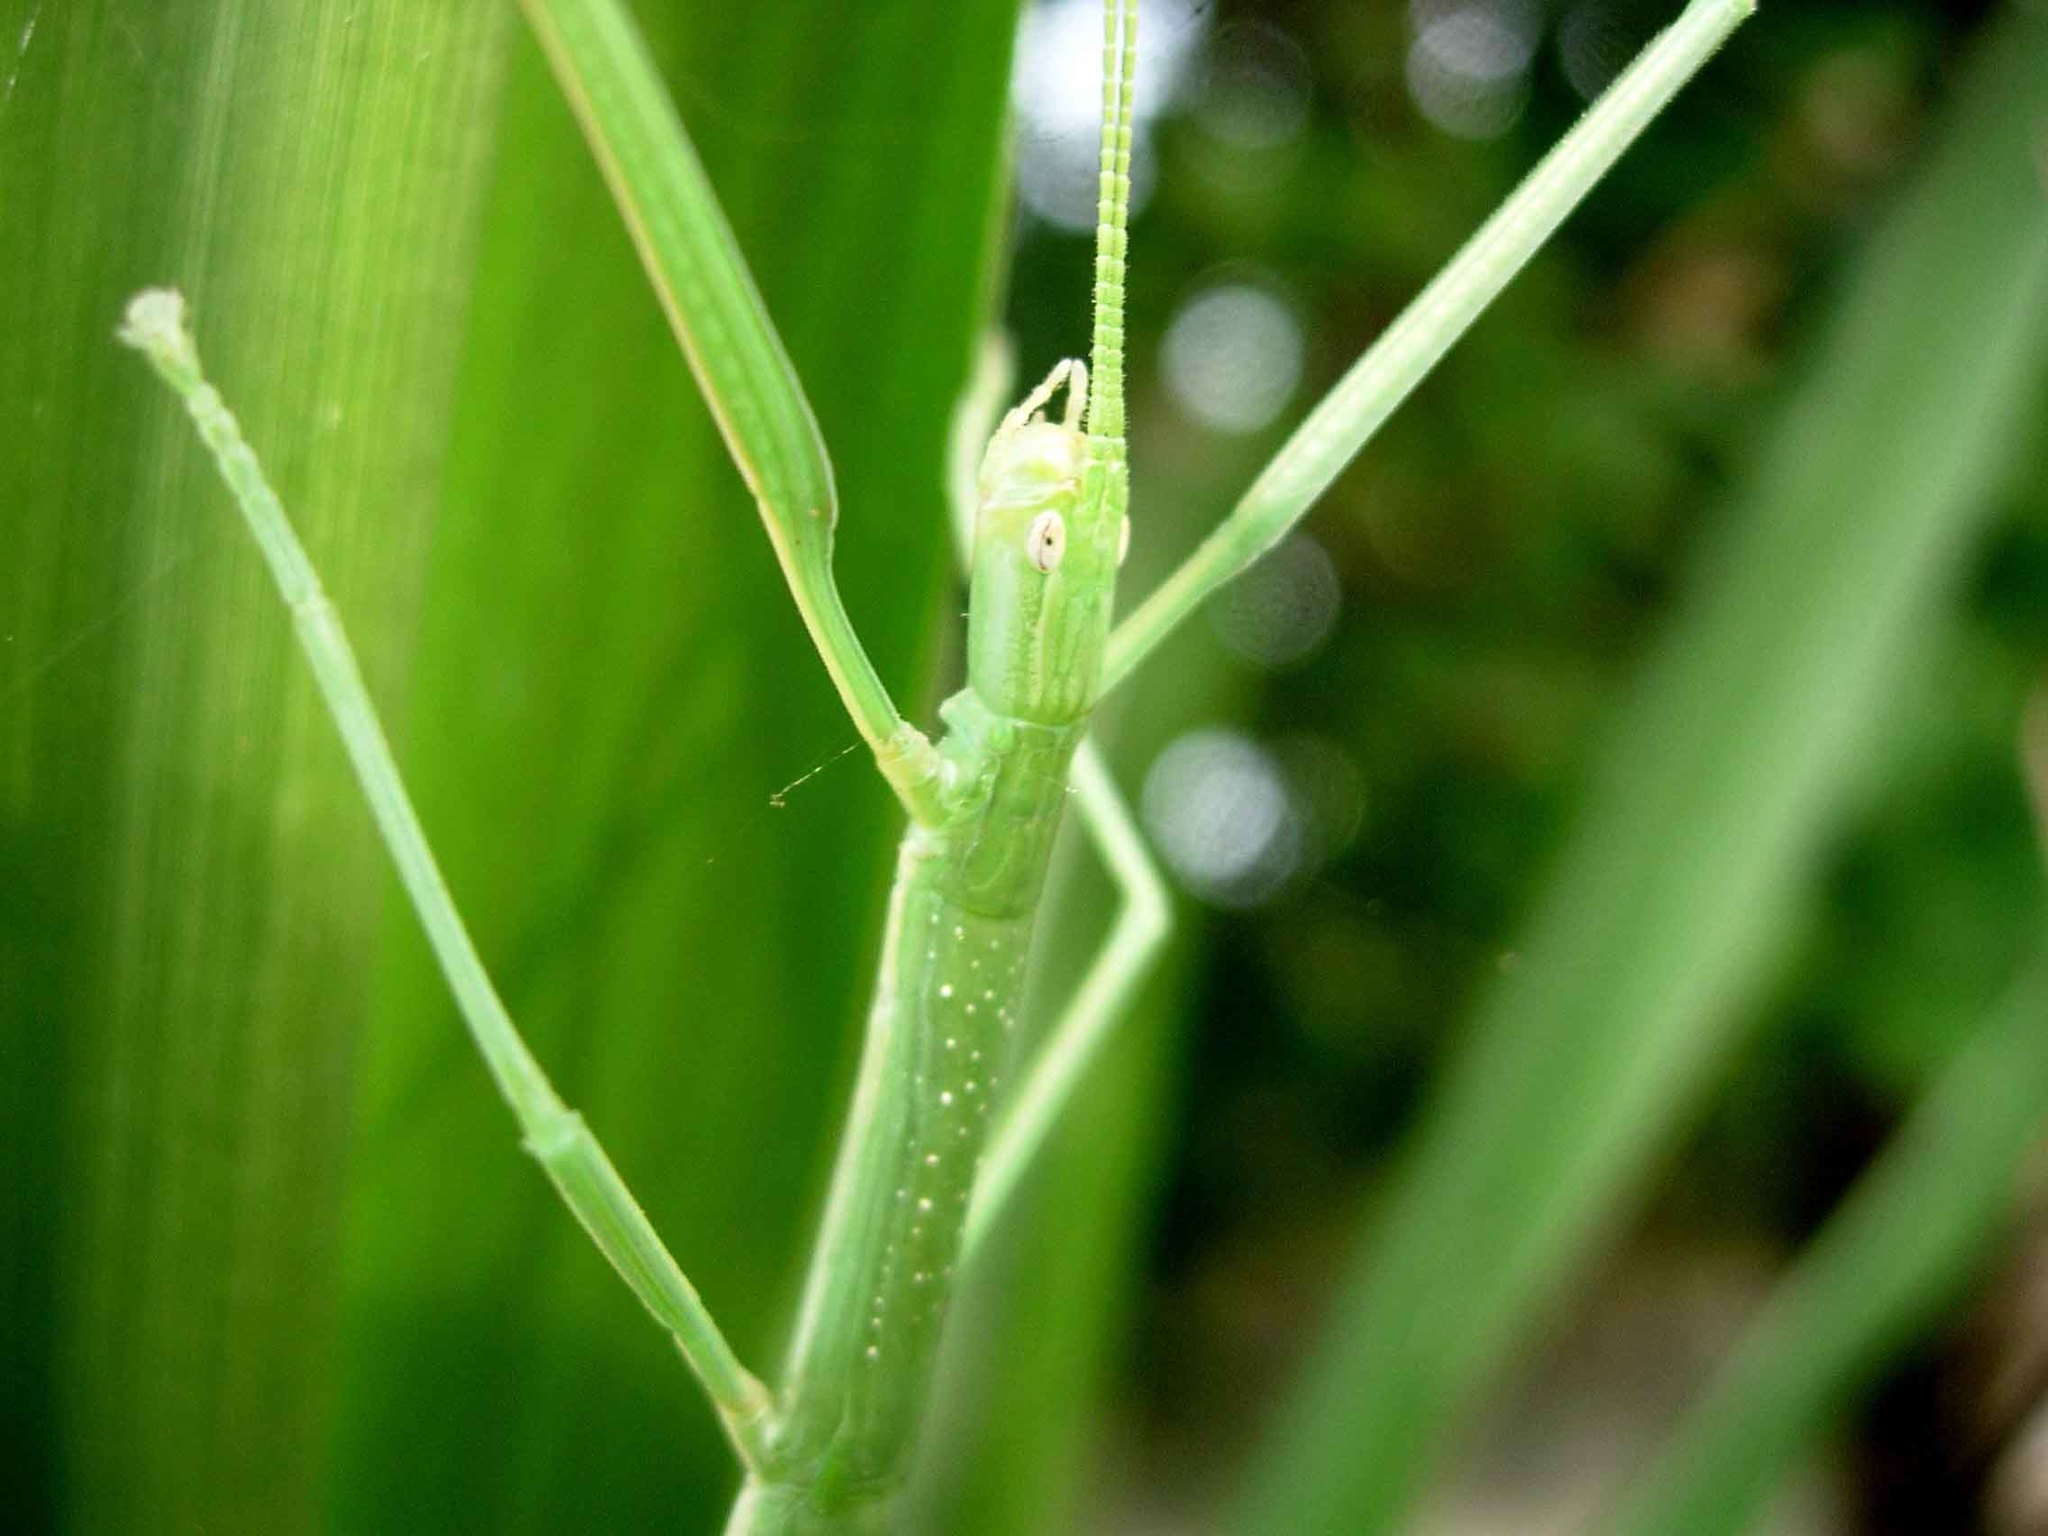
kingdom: Animalia
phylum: Arthropoda
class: Insecta
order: Phasmida
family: Phasmatidae
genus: Graeffea
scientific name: Graeffea crouanii
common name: Coconut stick insect
